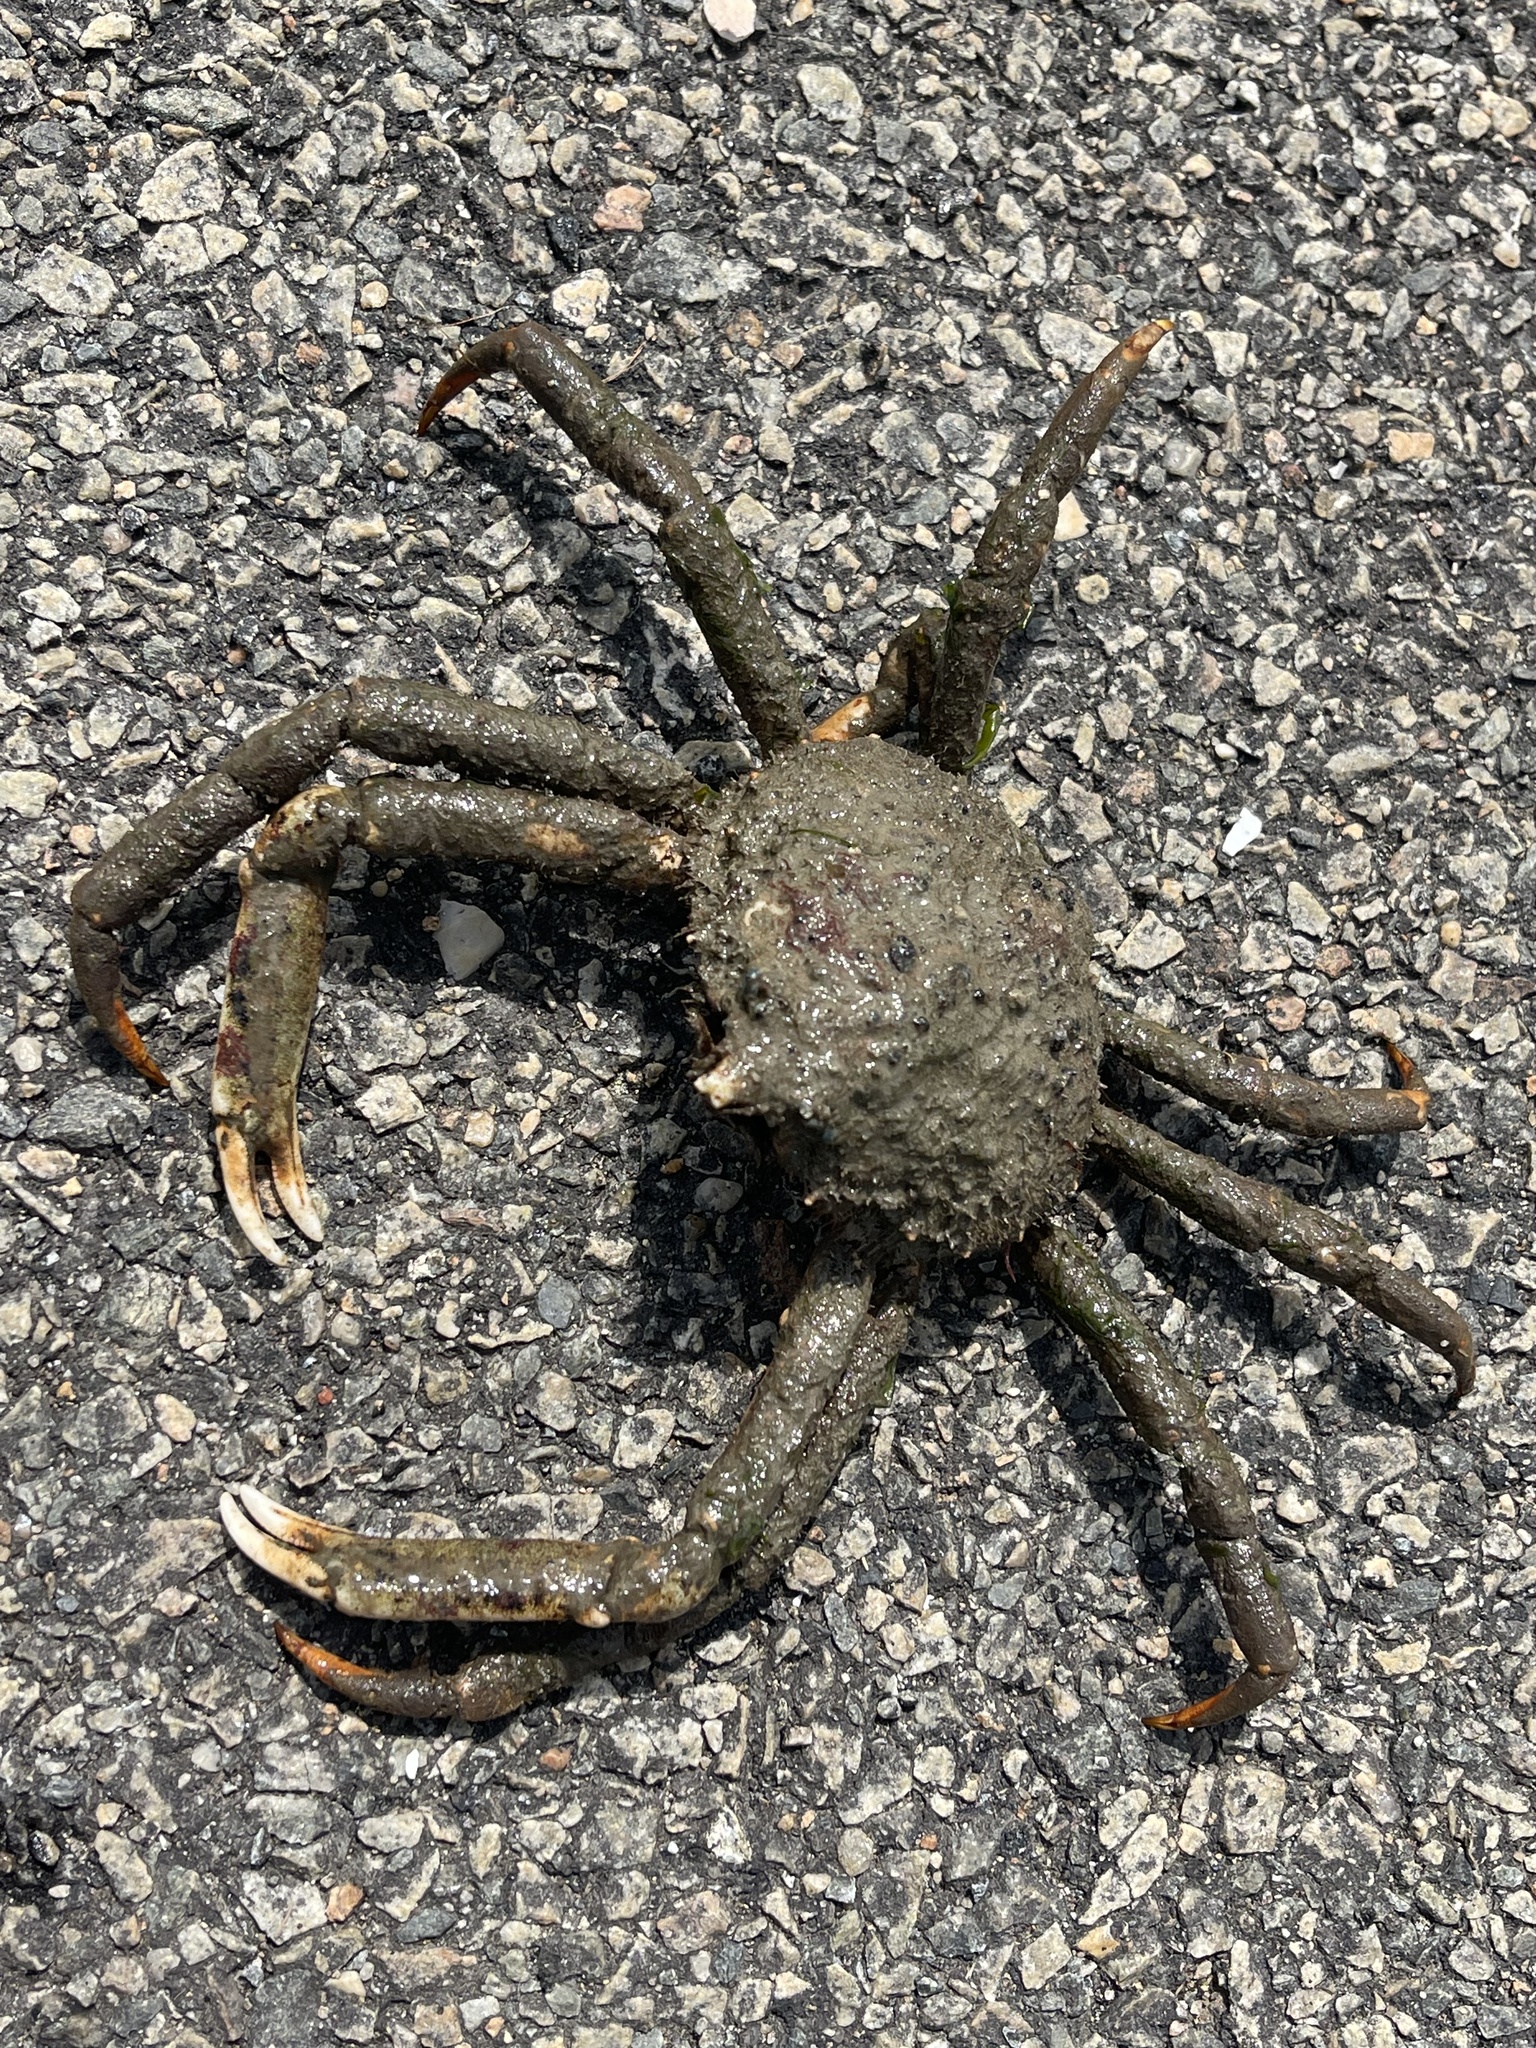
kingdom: Animalia
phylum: Arthropoda
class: Malacostraca
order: Decapoda
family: Epialtidae
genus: Libinia
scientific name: Libinia emarginata
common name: Common spider crab
